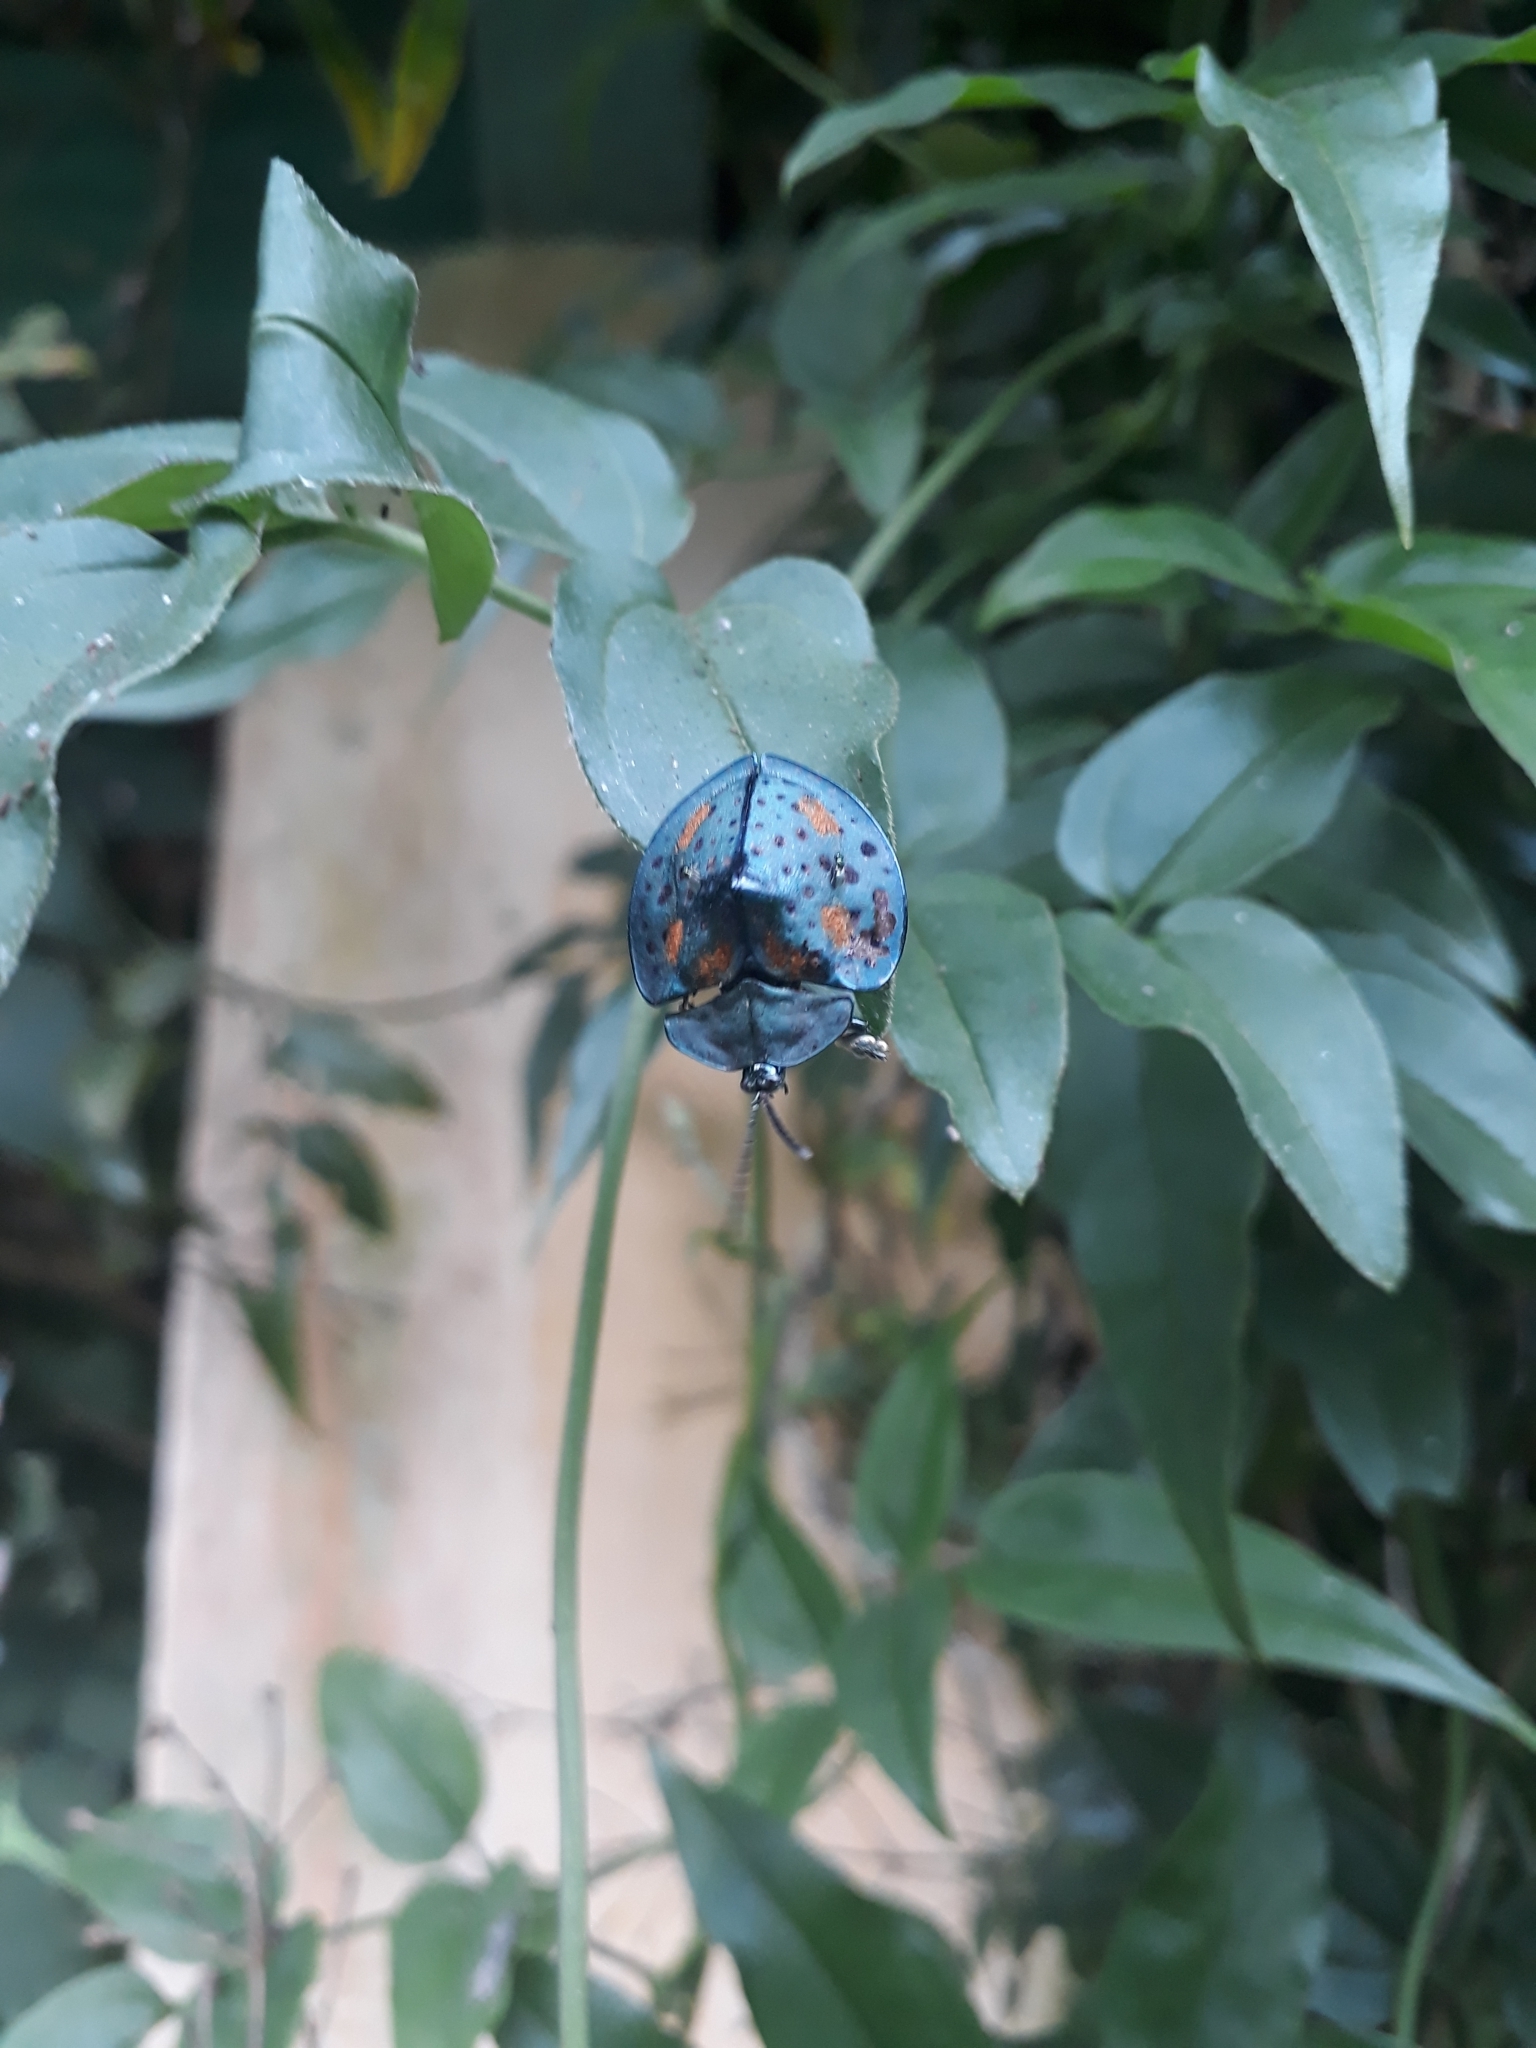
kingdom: Animalia
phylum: Arthropoda
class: Insecta
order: Coleoptera
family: Chrysomelidae
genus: Stolas
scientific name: Stolas conspersa
